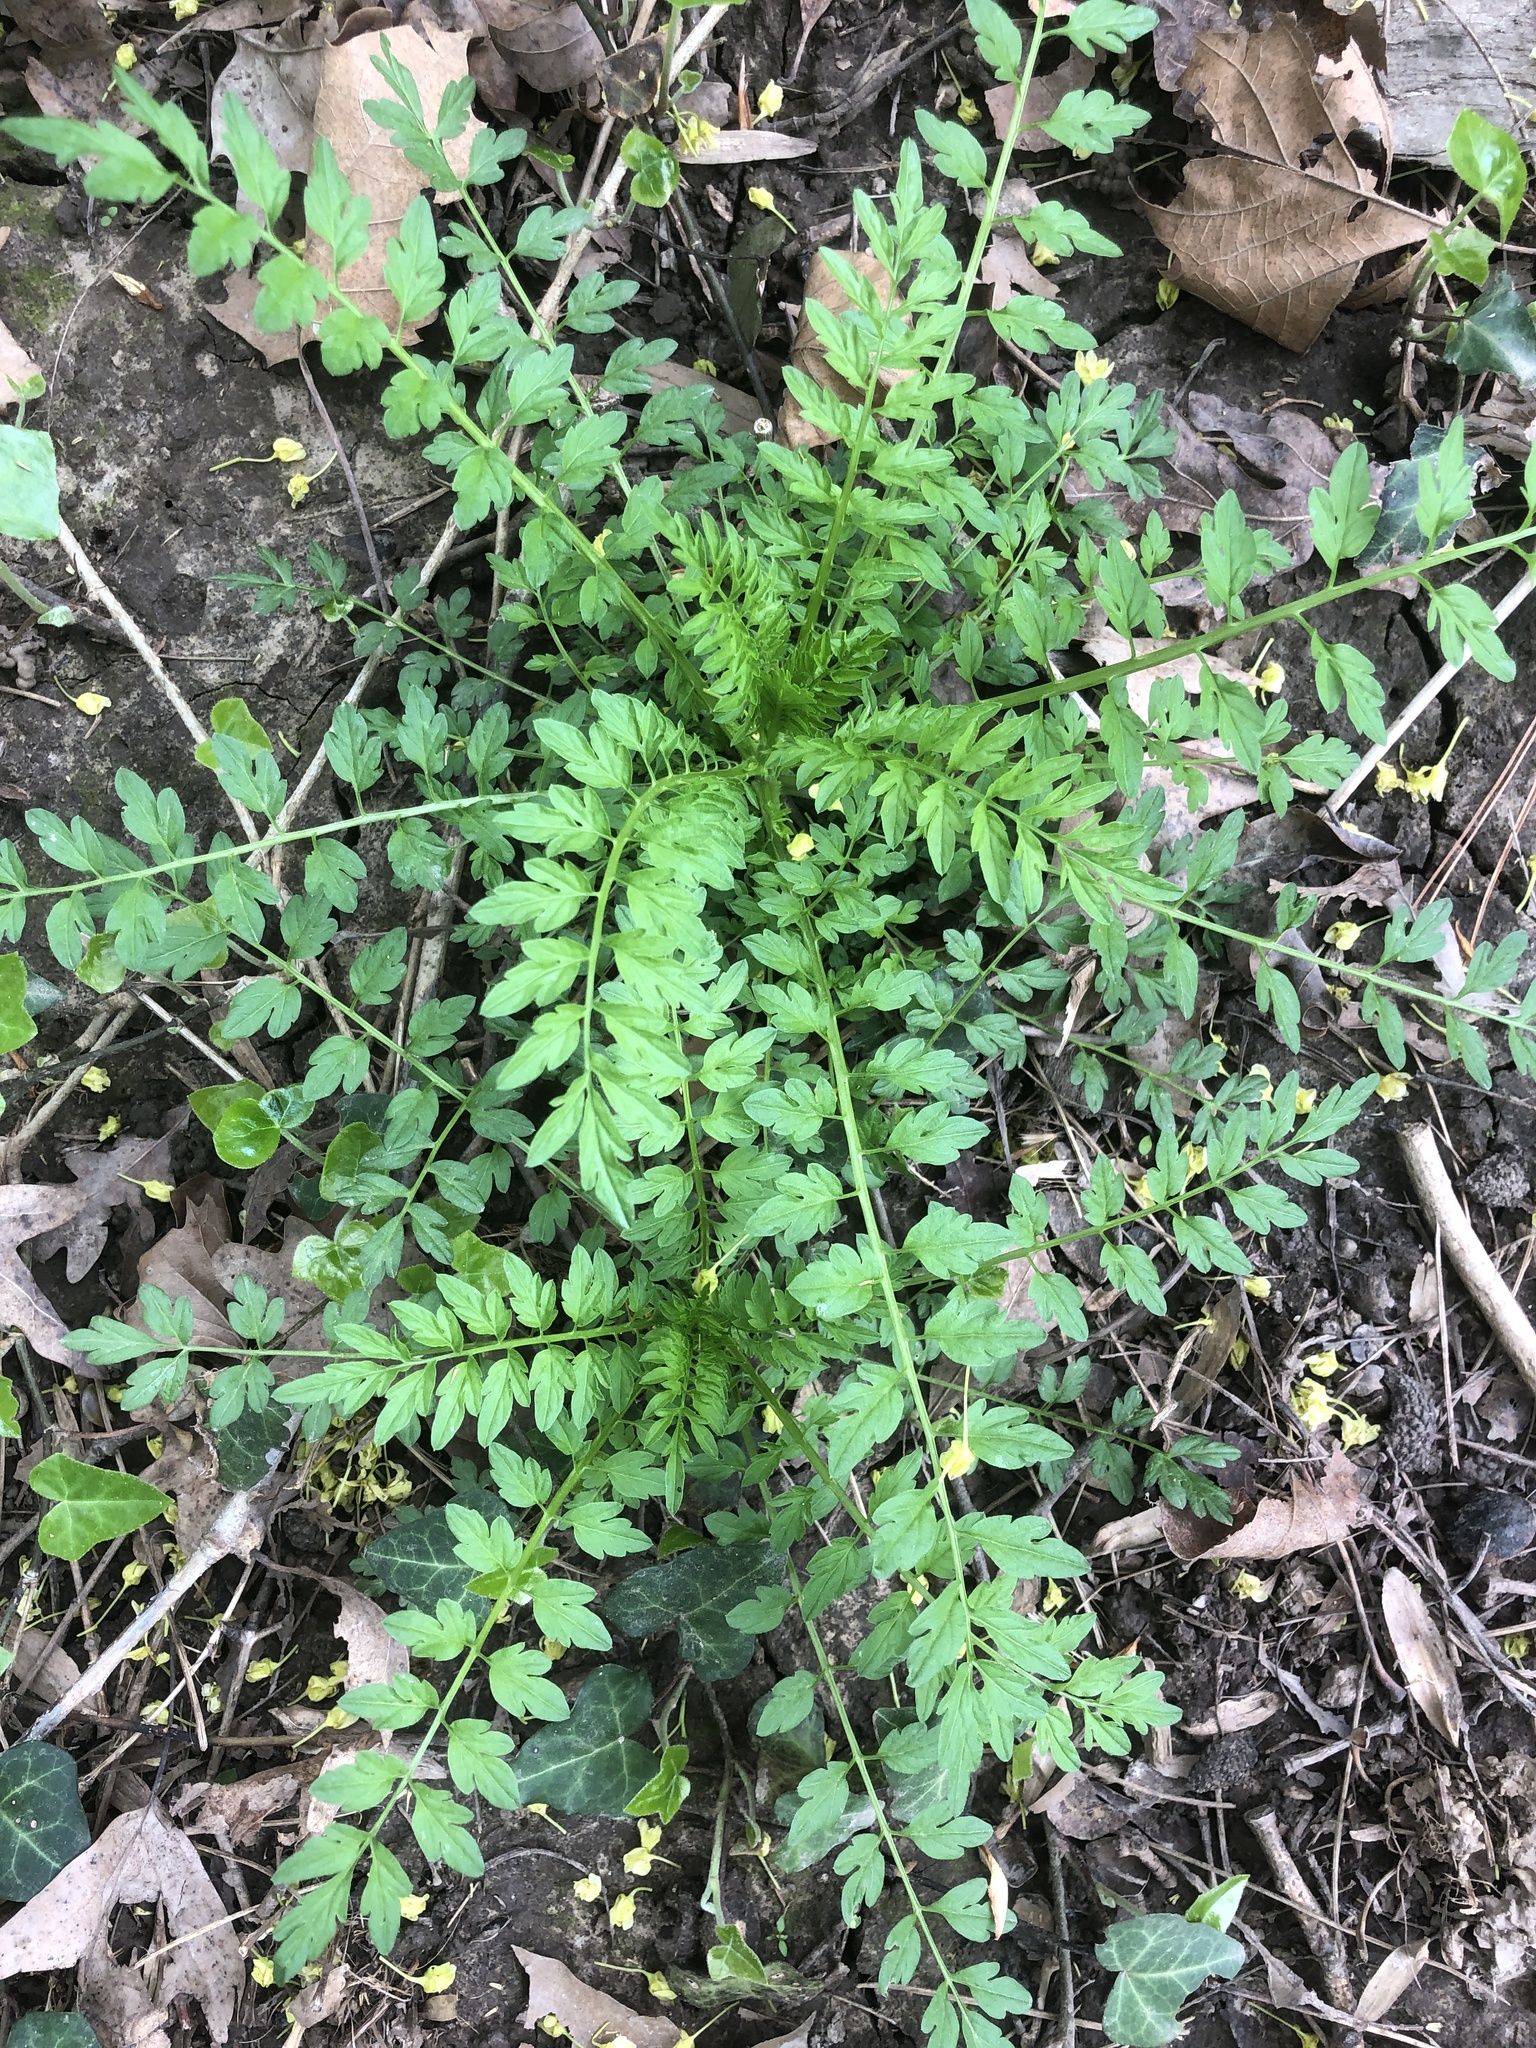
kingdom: Plantae
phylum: Tracheophyta
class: Magnoliopsida
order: Brassicales
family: Brassicaceae
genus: Cardamine
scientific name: Cardamine impatiens
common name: Narrow-leaved bitter-cress
